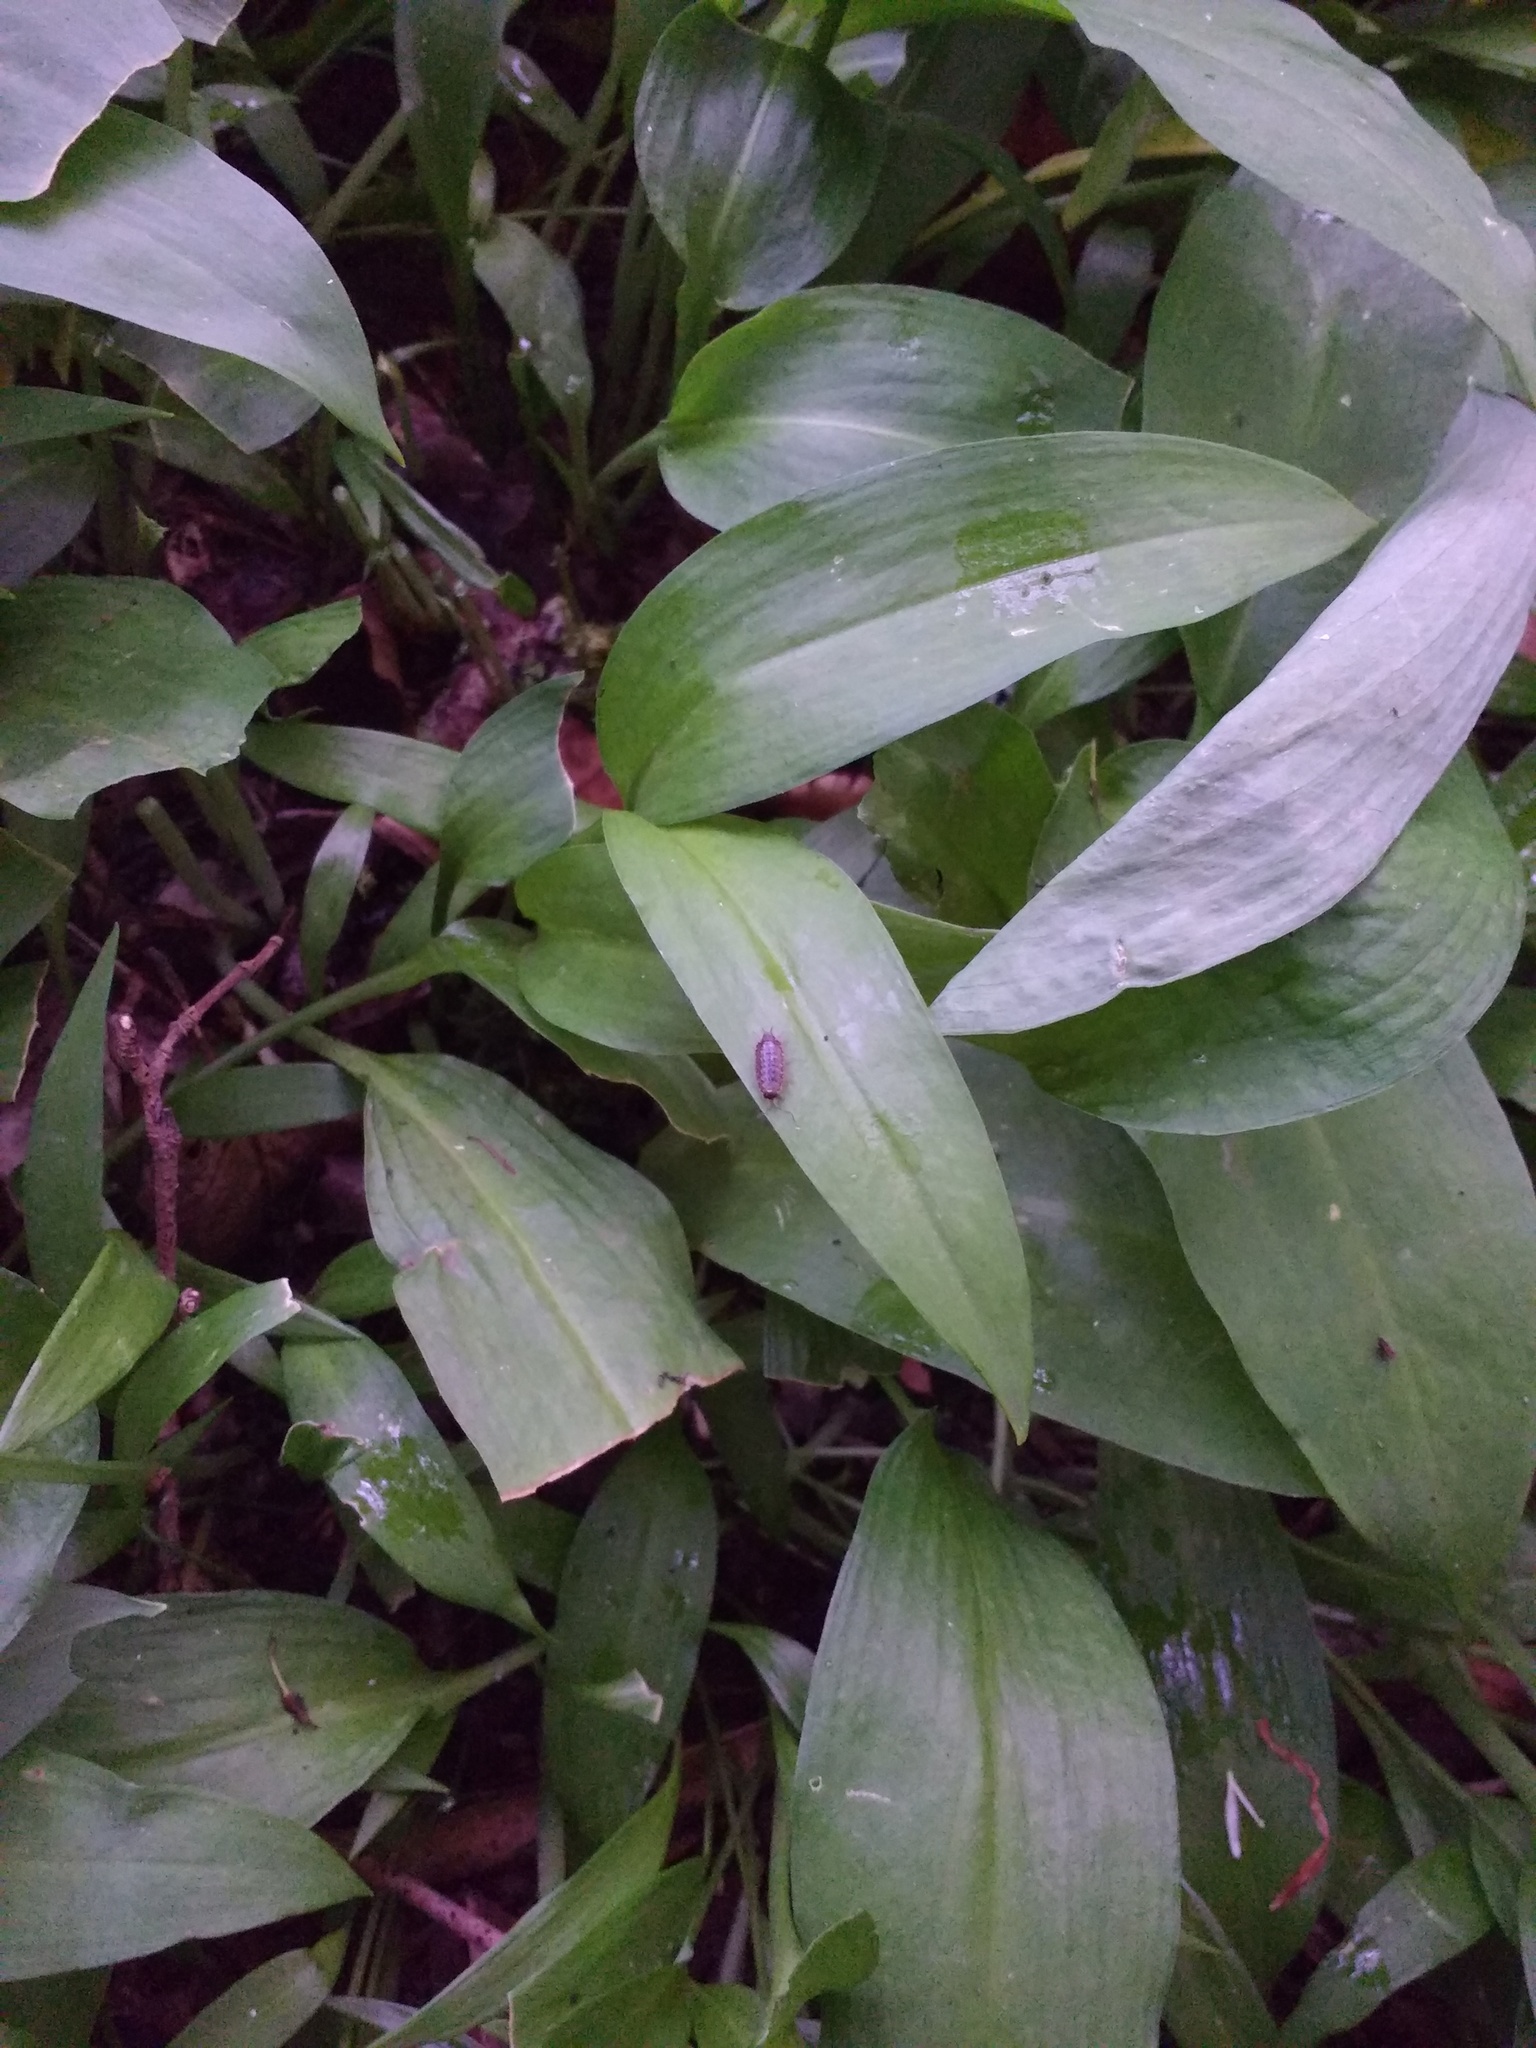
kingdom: Animalia
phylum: Arthropoda
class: Malacostraca
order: Isopoda
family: Philosciidae
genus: Philoscia
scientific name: Philoscia muscorum
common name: Common striped woodlouse
